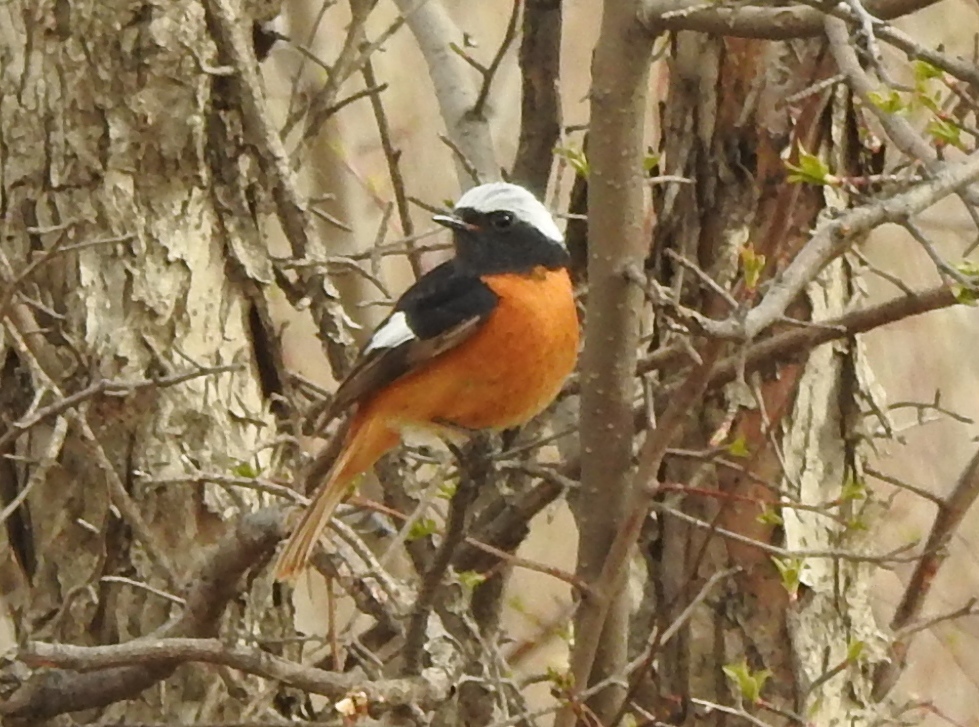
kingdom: Animalia
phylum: Chordata
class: Aves
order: Passeriformes
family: Muscicapidae
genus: Phoenicurus
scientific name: Phoenicurus auroreus
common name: Daurian redstart
